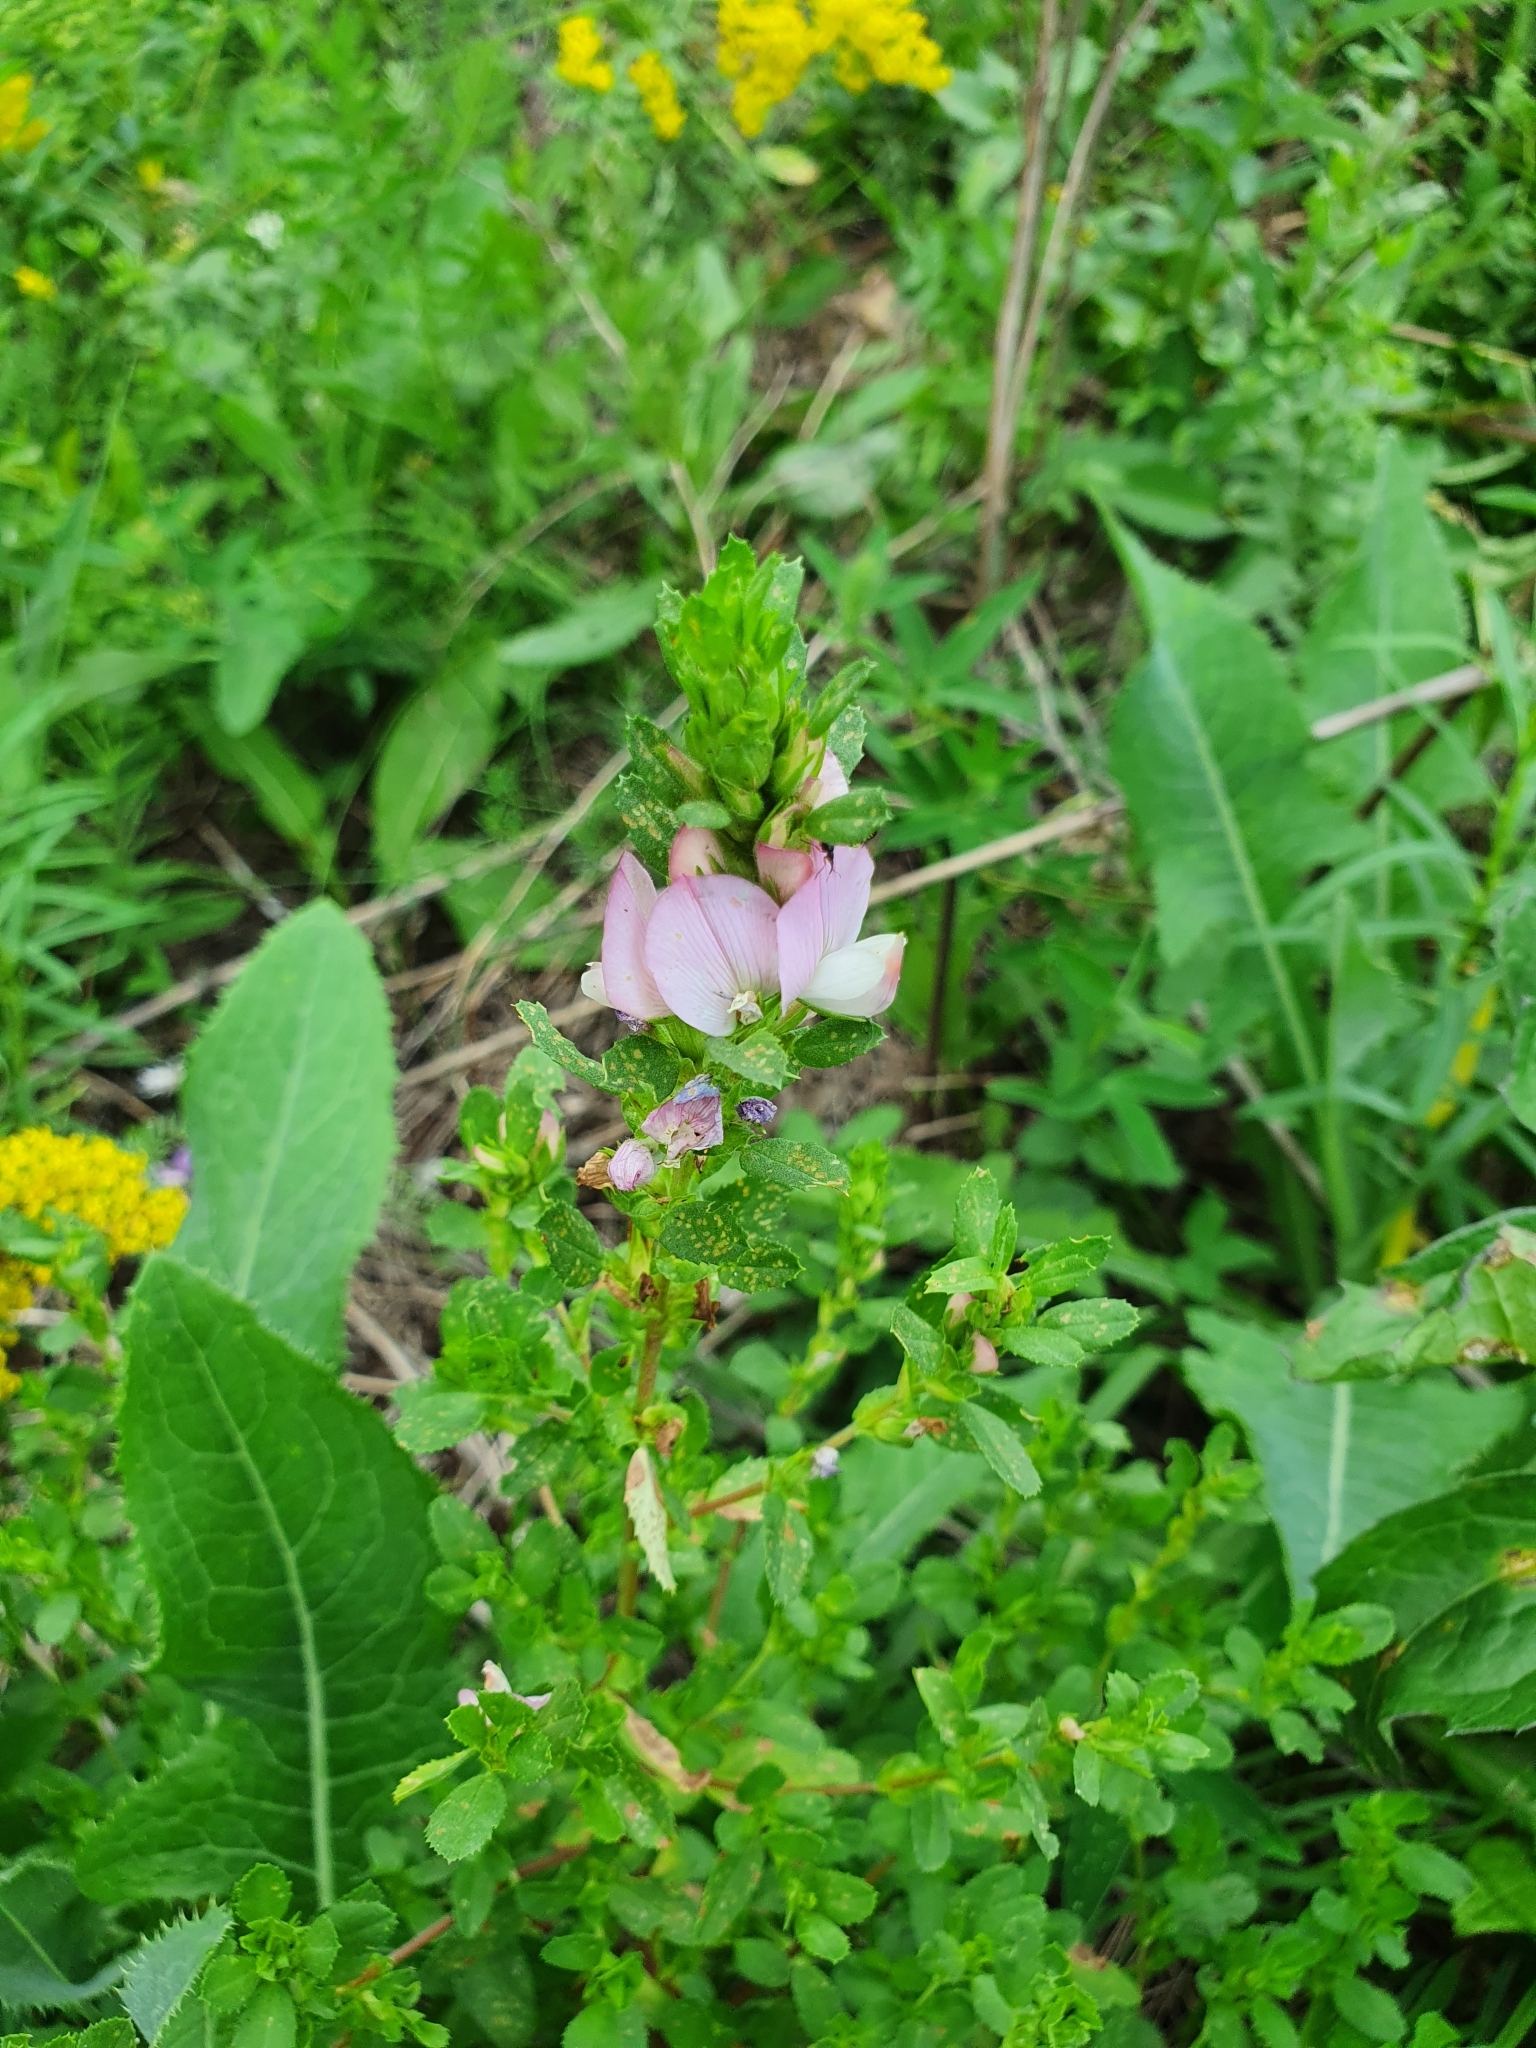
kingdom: Plantae
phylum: Tracheophyta
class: Magnoliopsida
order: Fabales
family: Fabaceae
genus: Ononis
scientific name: Ononis arvensis
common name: Field restharrow
